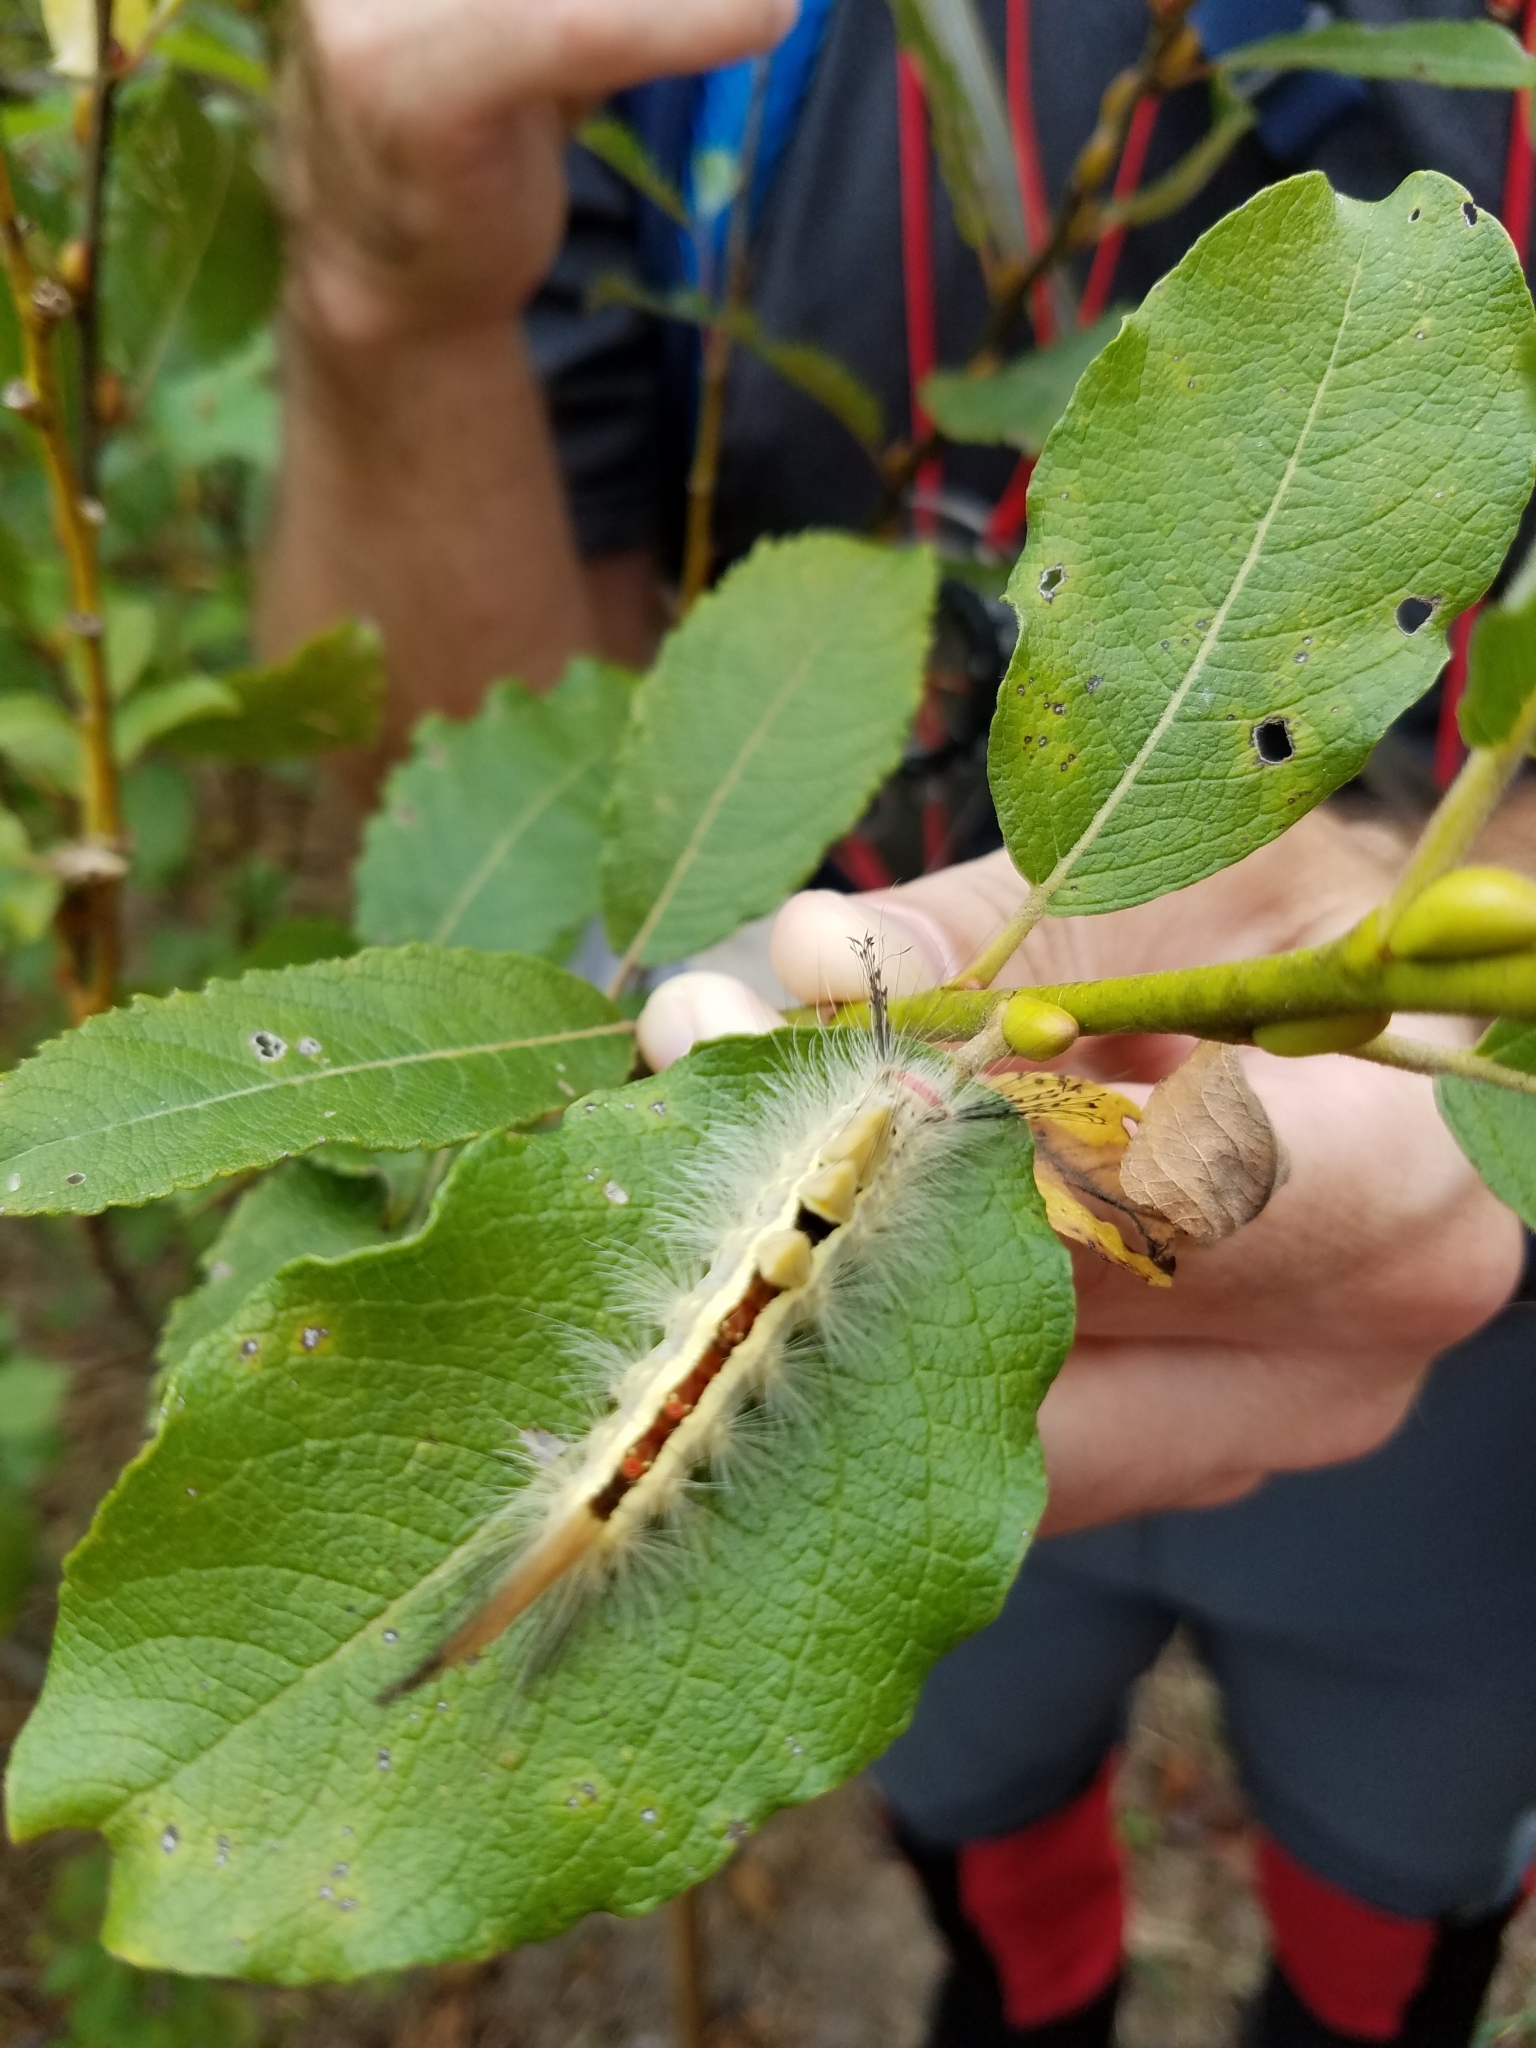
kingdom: Animalia
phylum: Arthropoda
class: Insecta
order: Lepidoptera
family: Erebidae
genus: Orgyia
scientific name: Orgyia leucostigma
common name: White-marked tussock moth
